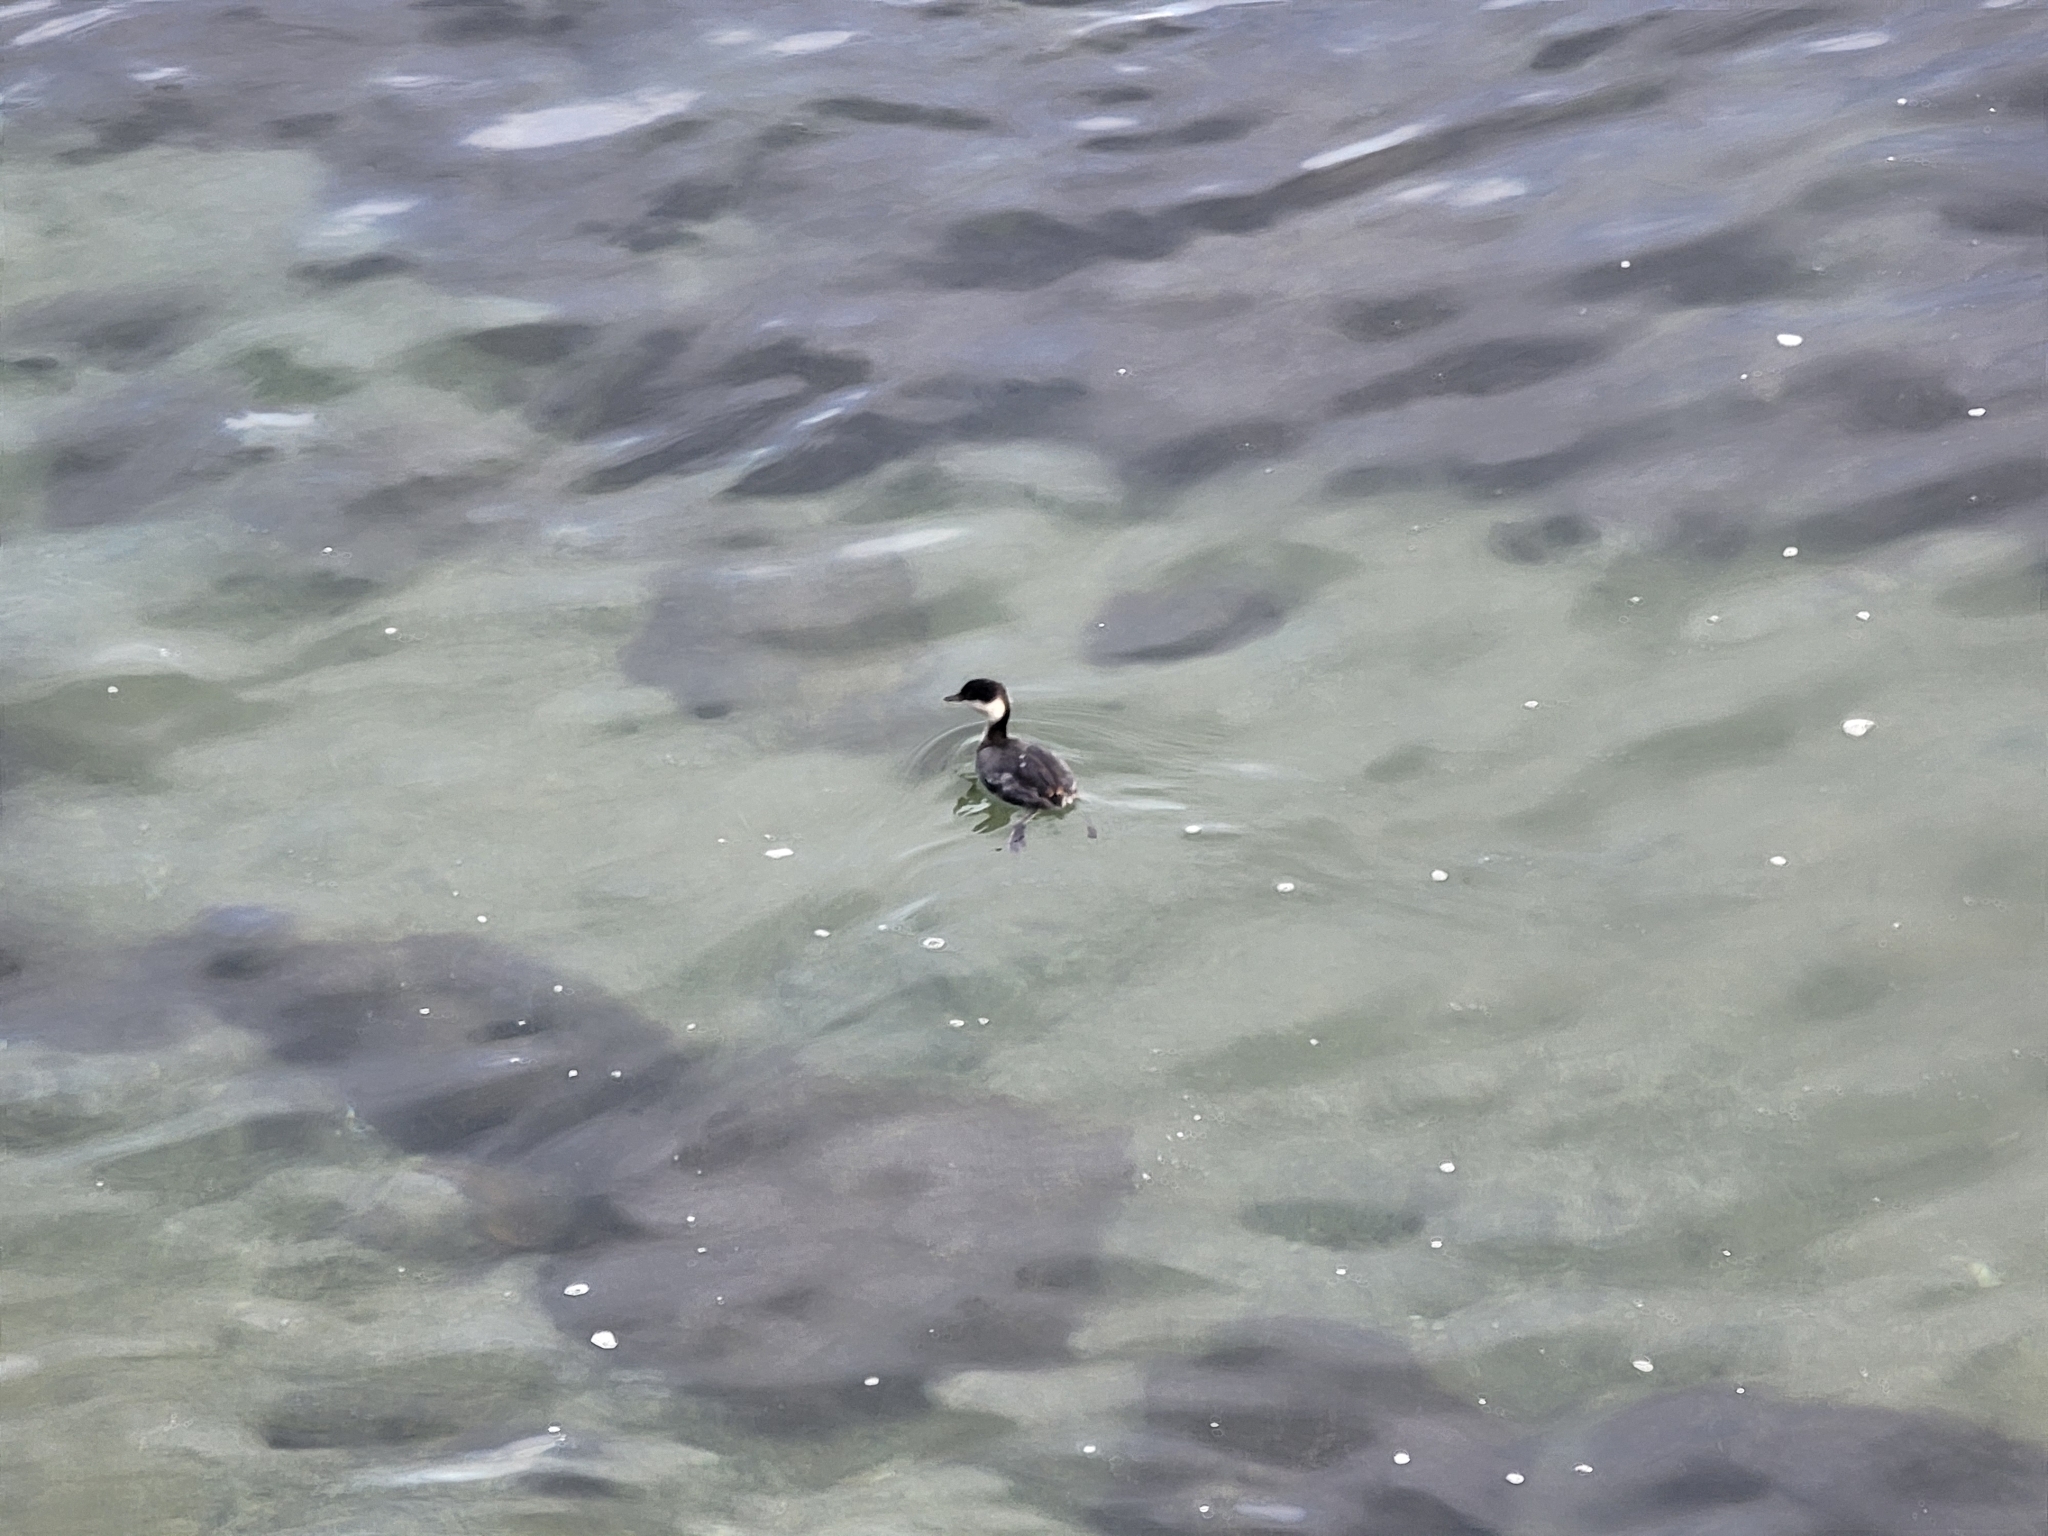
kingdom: Animalia
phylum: Chordata
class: Aves
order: Podicipediformes
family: Podicipedidae
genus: Podiceps
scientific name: Podiceps auritus
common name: Horned grebe
